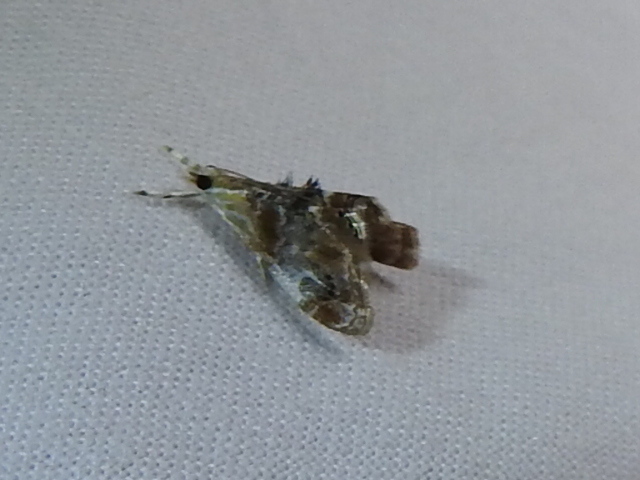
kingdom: Animalia
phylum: Arthropoda
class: Insecta
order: Lepidoptera
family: Crambidae
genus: Dicymolomia
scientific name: Dicymolomia julianalis
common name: Julia's dicymolomia moth
